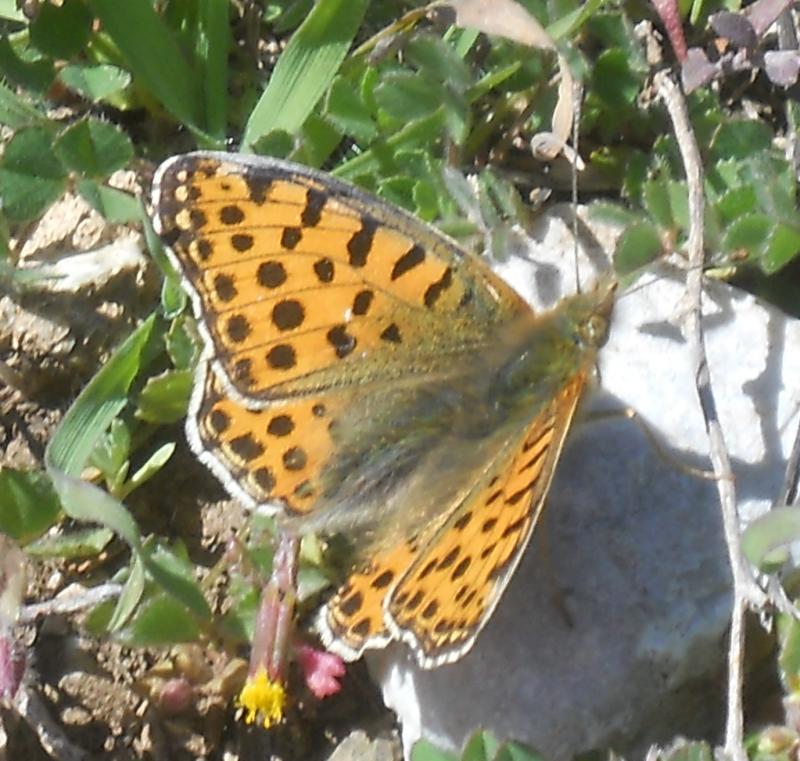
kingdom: Animalia
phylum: Arthropoda
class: Insecta
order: Lepidoptera
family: Nymphalidae
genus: Issoria
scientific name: Issoria lathonia
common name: Queen of spain fritillary
